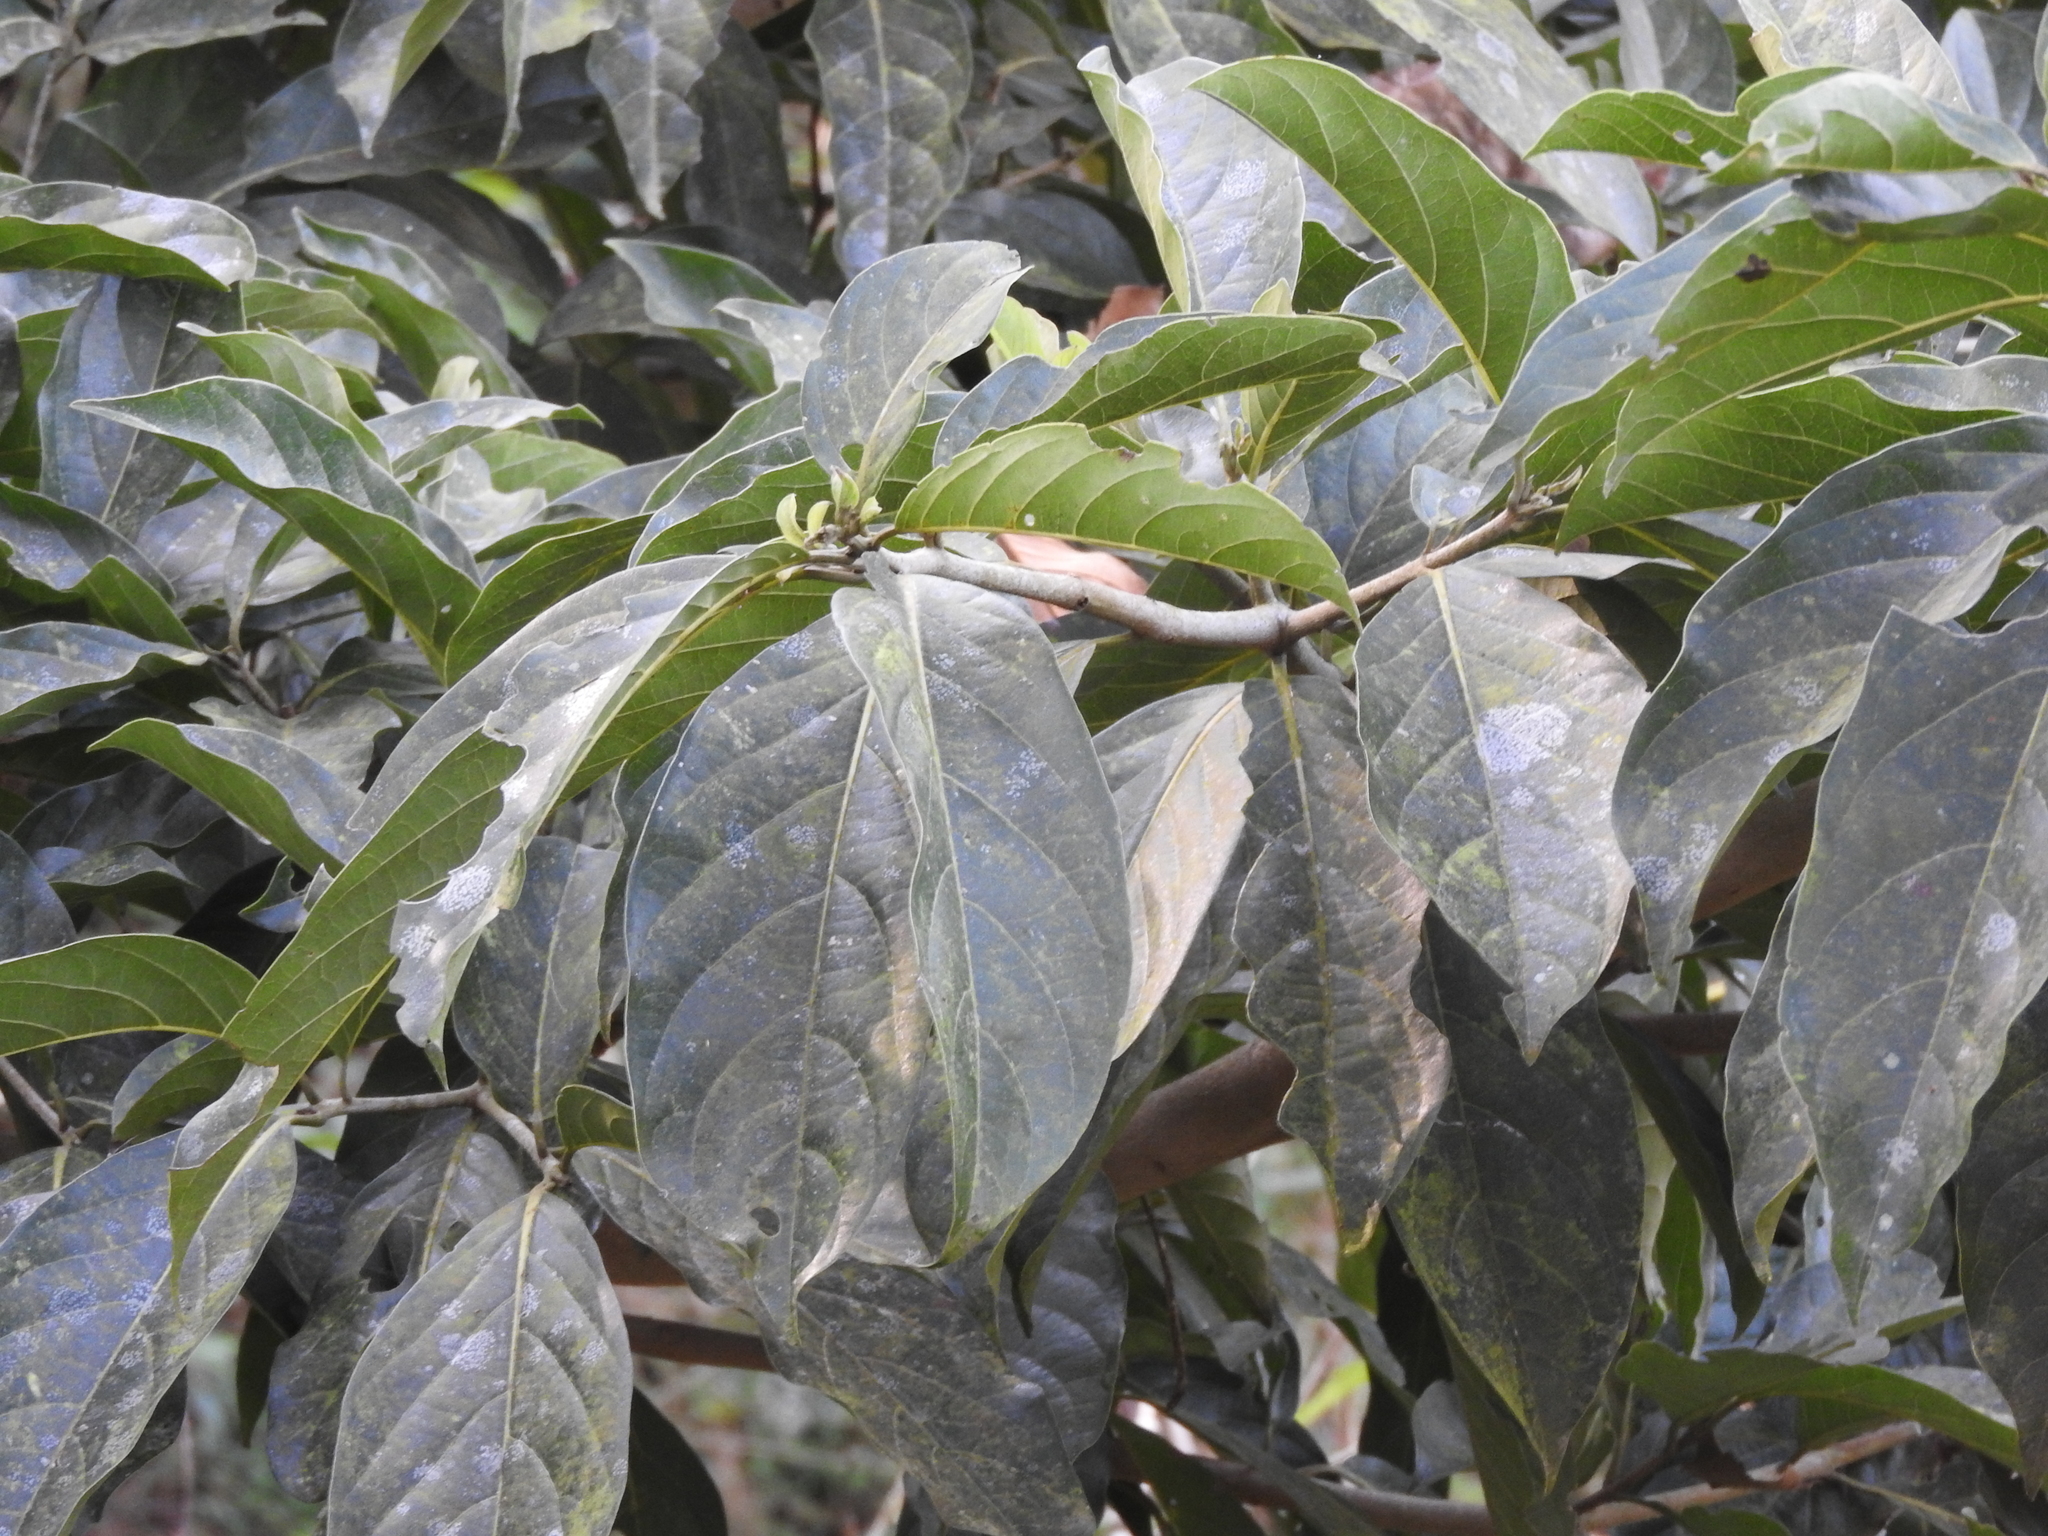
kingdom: Plantae
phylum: Tracheophyta
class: Magnoliopsida
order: Boraginales
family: Cordiaceae
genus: Cordia
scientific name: Cordia collococca
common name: Clammy cherry
